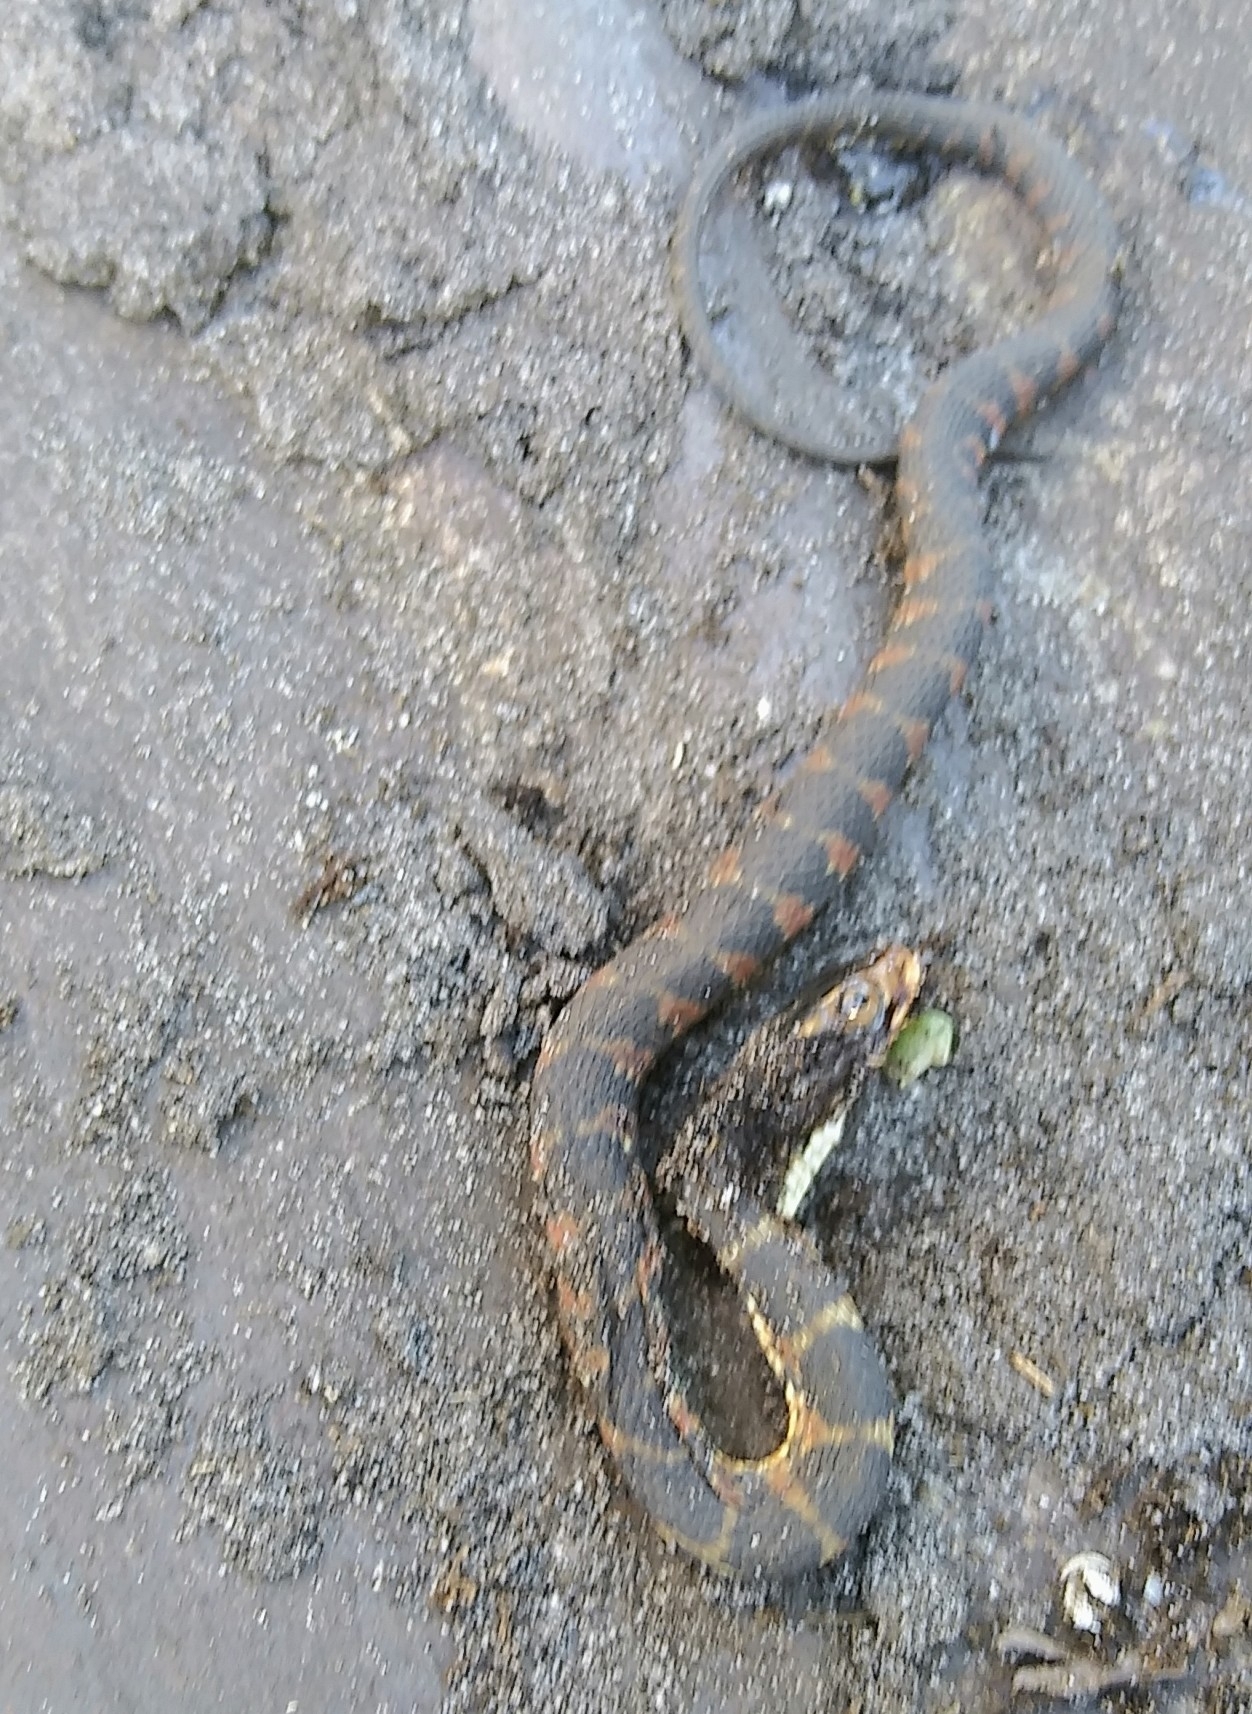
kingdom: Animalia
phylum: Chordata
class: Squamata
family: Colubridae
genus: Nerodia
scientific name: Nerodia fasciata
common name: Southern water snake
